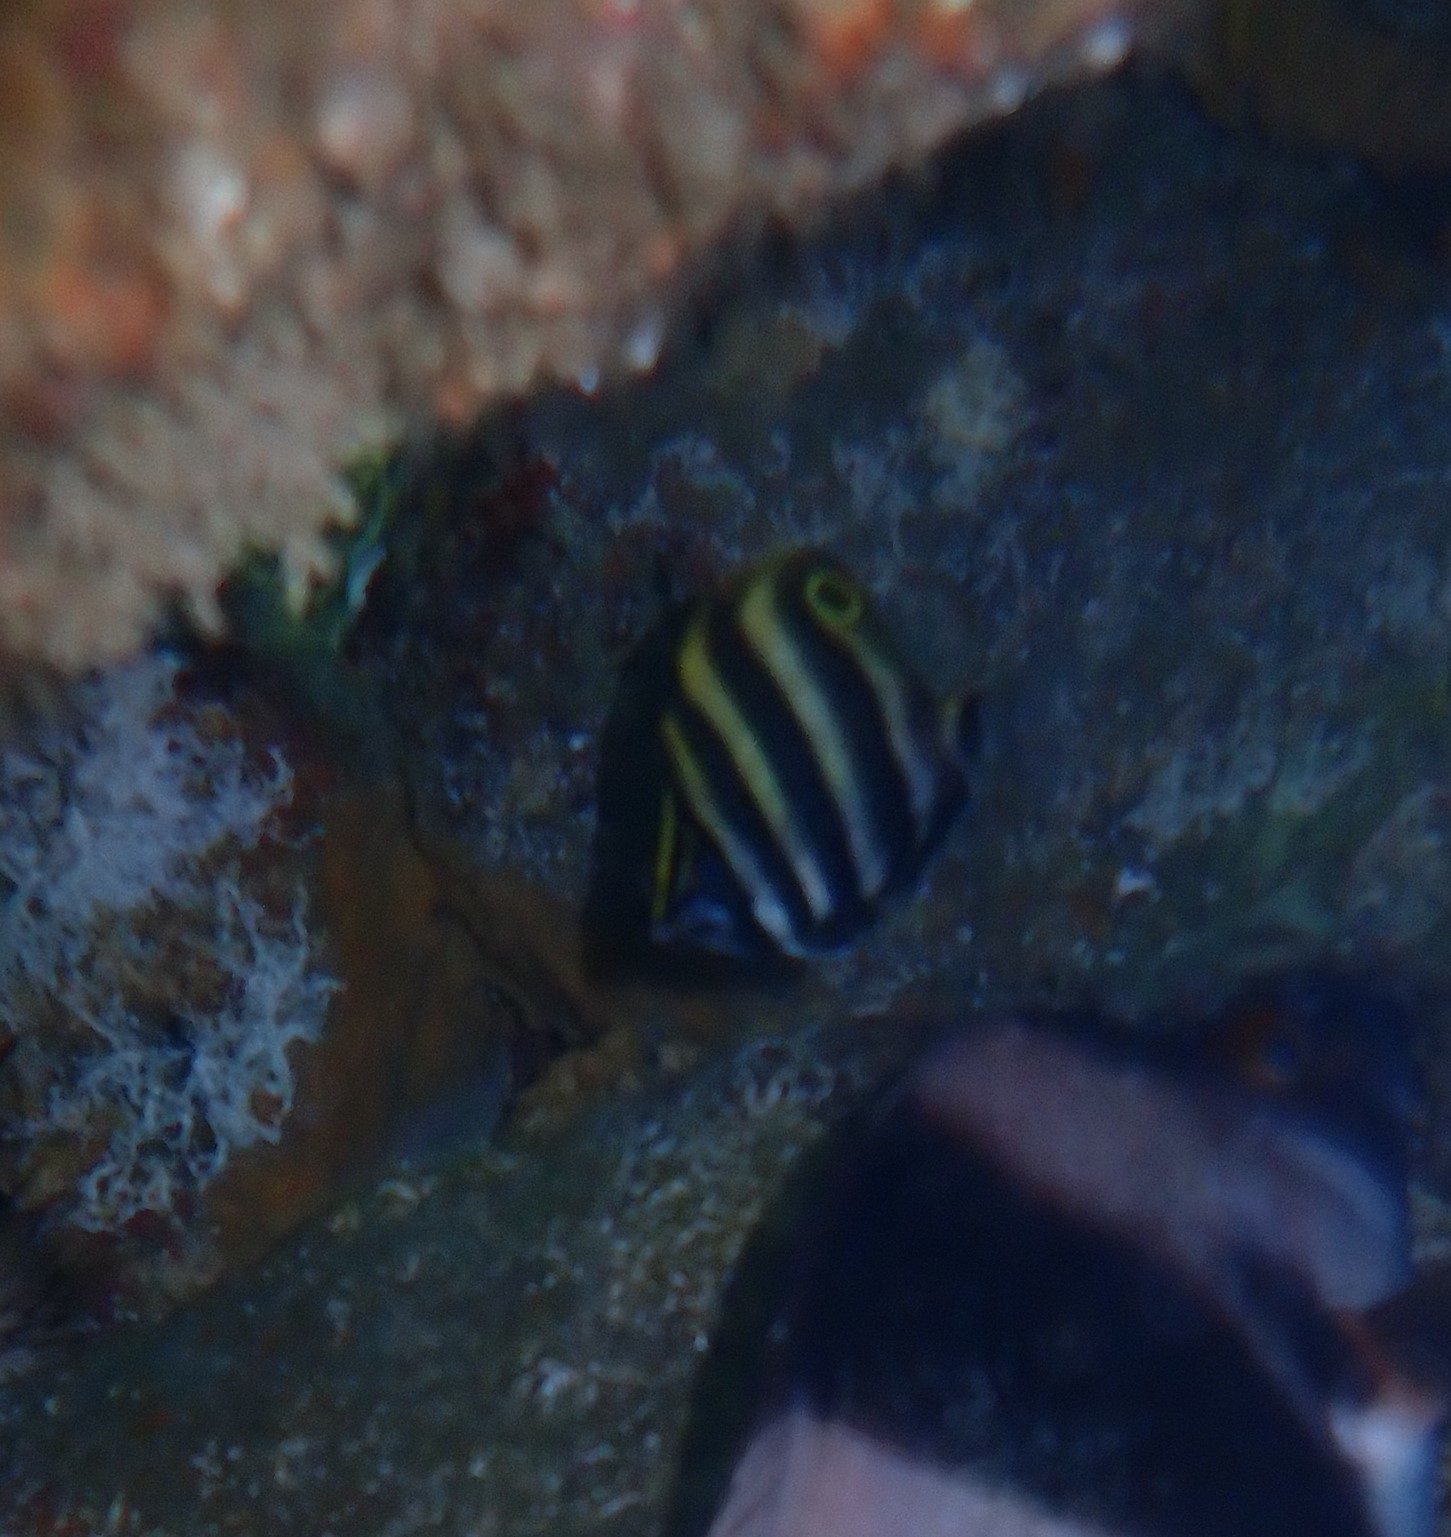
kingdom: Animalia
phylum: Chordata
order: Perciformes
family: Kyphosidae
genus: Tilodon
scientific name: Tilodon sexfasciatus
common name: Moonlighter
